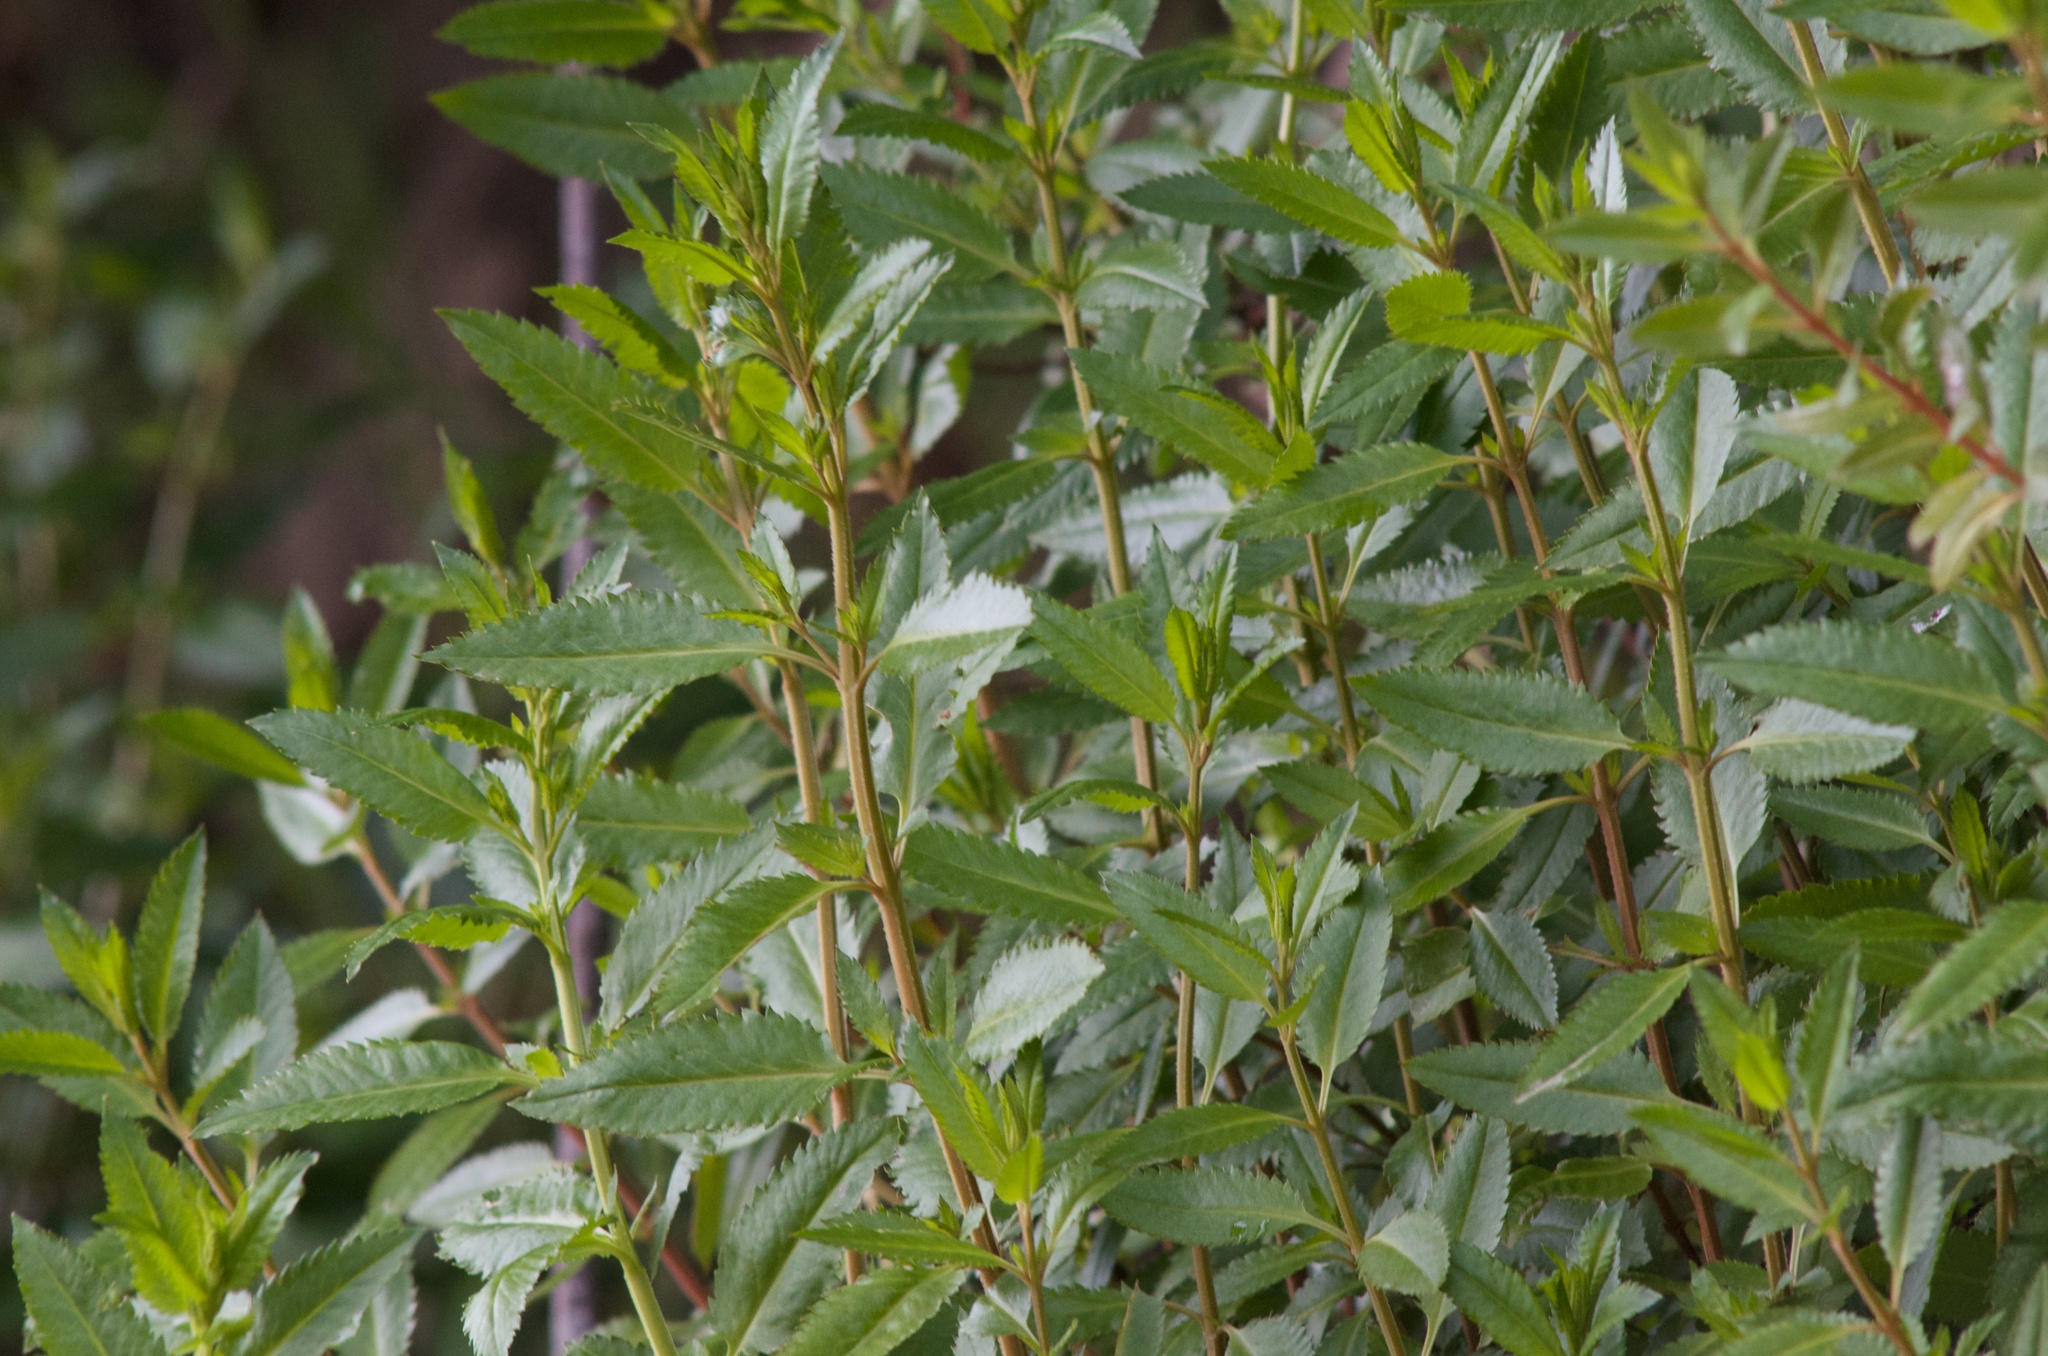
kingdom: Plantae
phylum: Tracheophyta
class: Magnoliopsida
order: Saxifragales
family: Haloragaceae
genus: Haloragis
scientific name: Haloragis erecta
